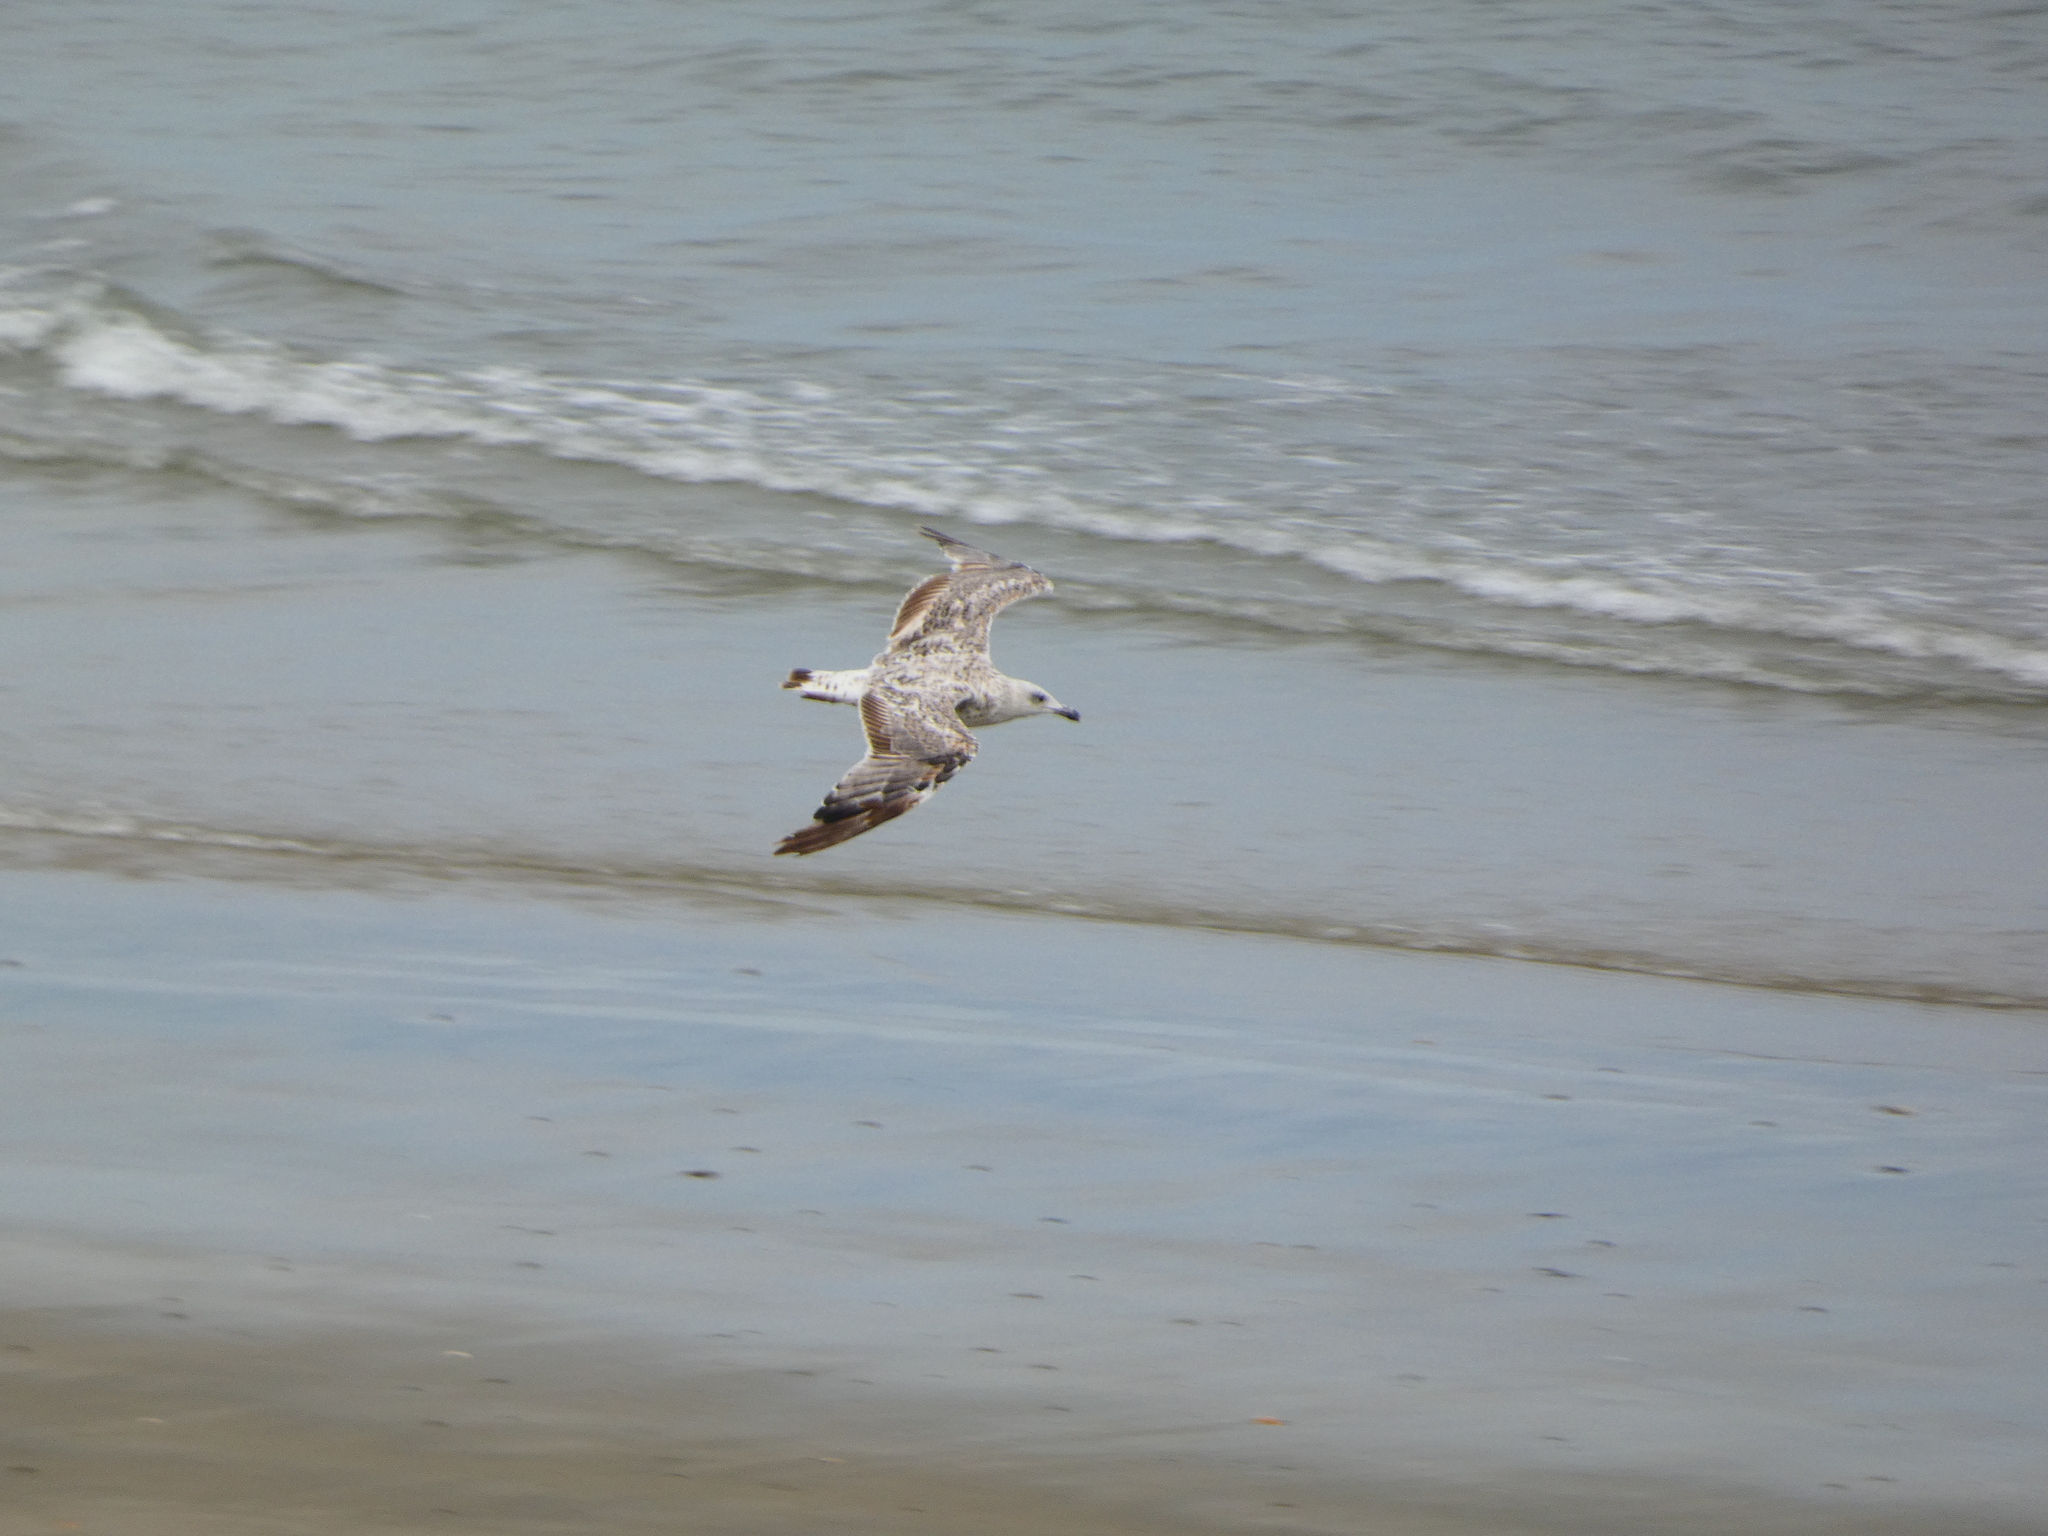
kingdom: Animalia
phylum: Chordata
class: Aves
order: Charadriiformes
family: Laridae
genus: Larus
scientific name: Larus marinus
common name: Great black-backed gull
